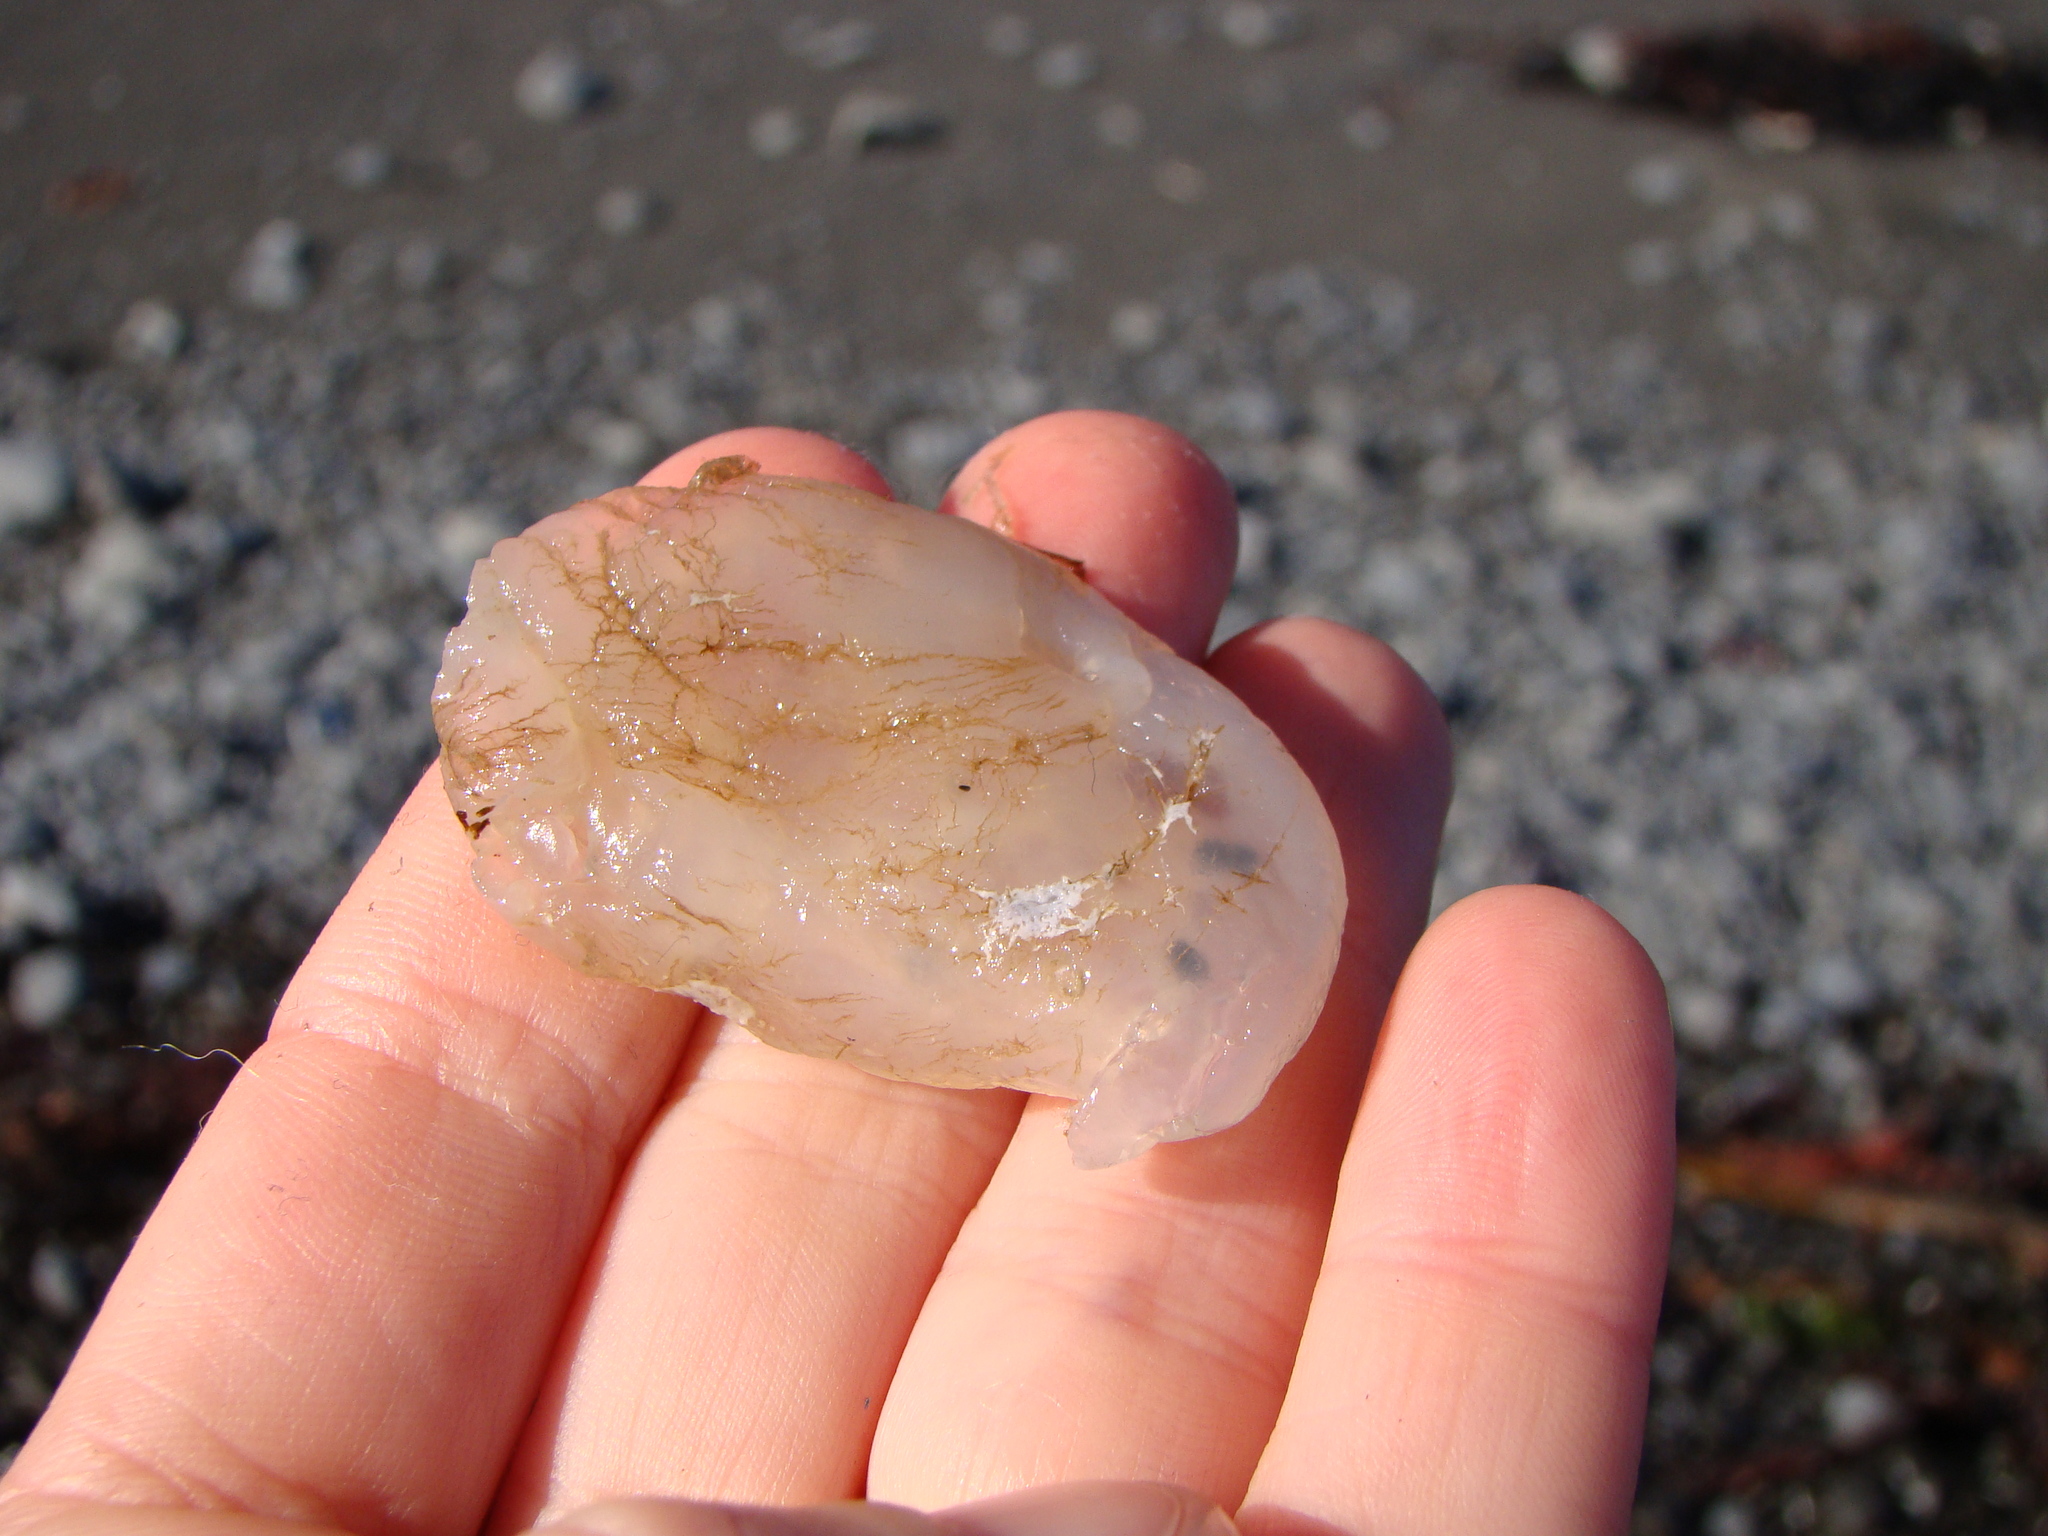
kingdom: Animalia
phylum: Chordata
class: Ascidiacea
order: Phlebobranchia
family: Corellidae
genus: Corella
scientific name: Corella eumyota
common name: Orange-tipped sea squirt
